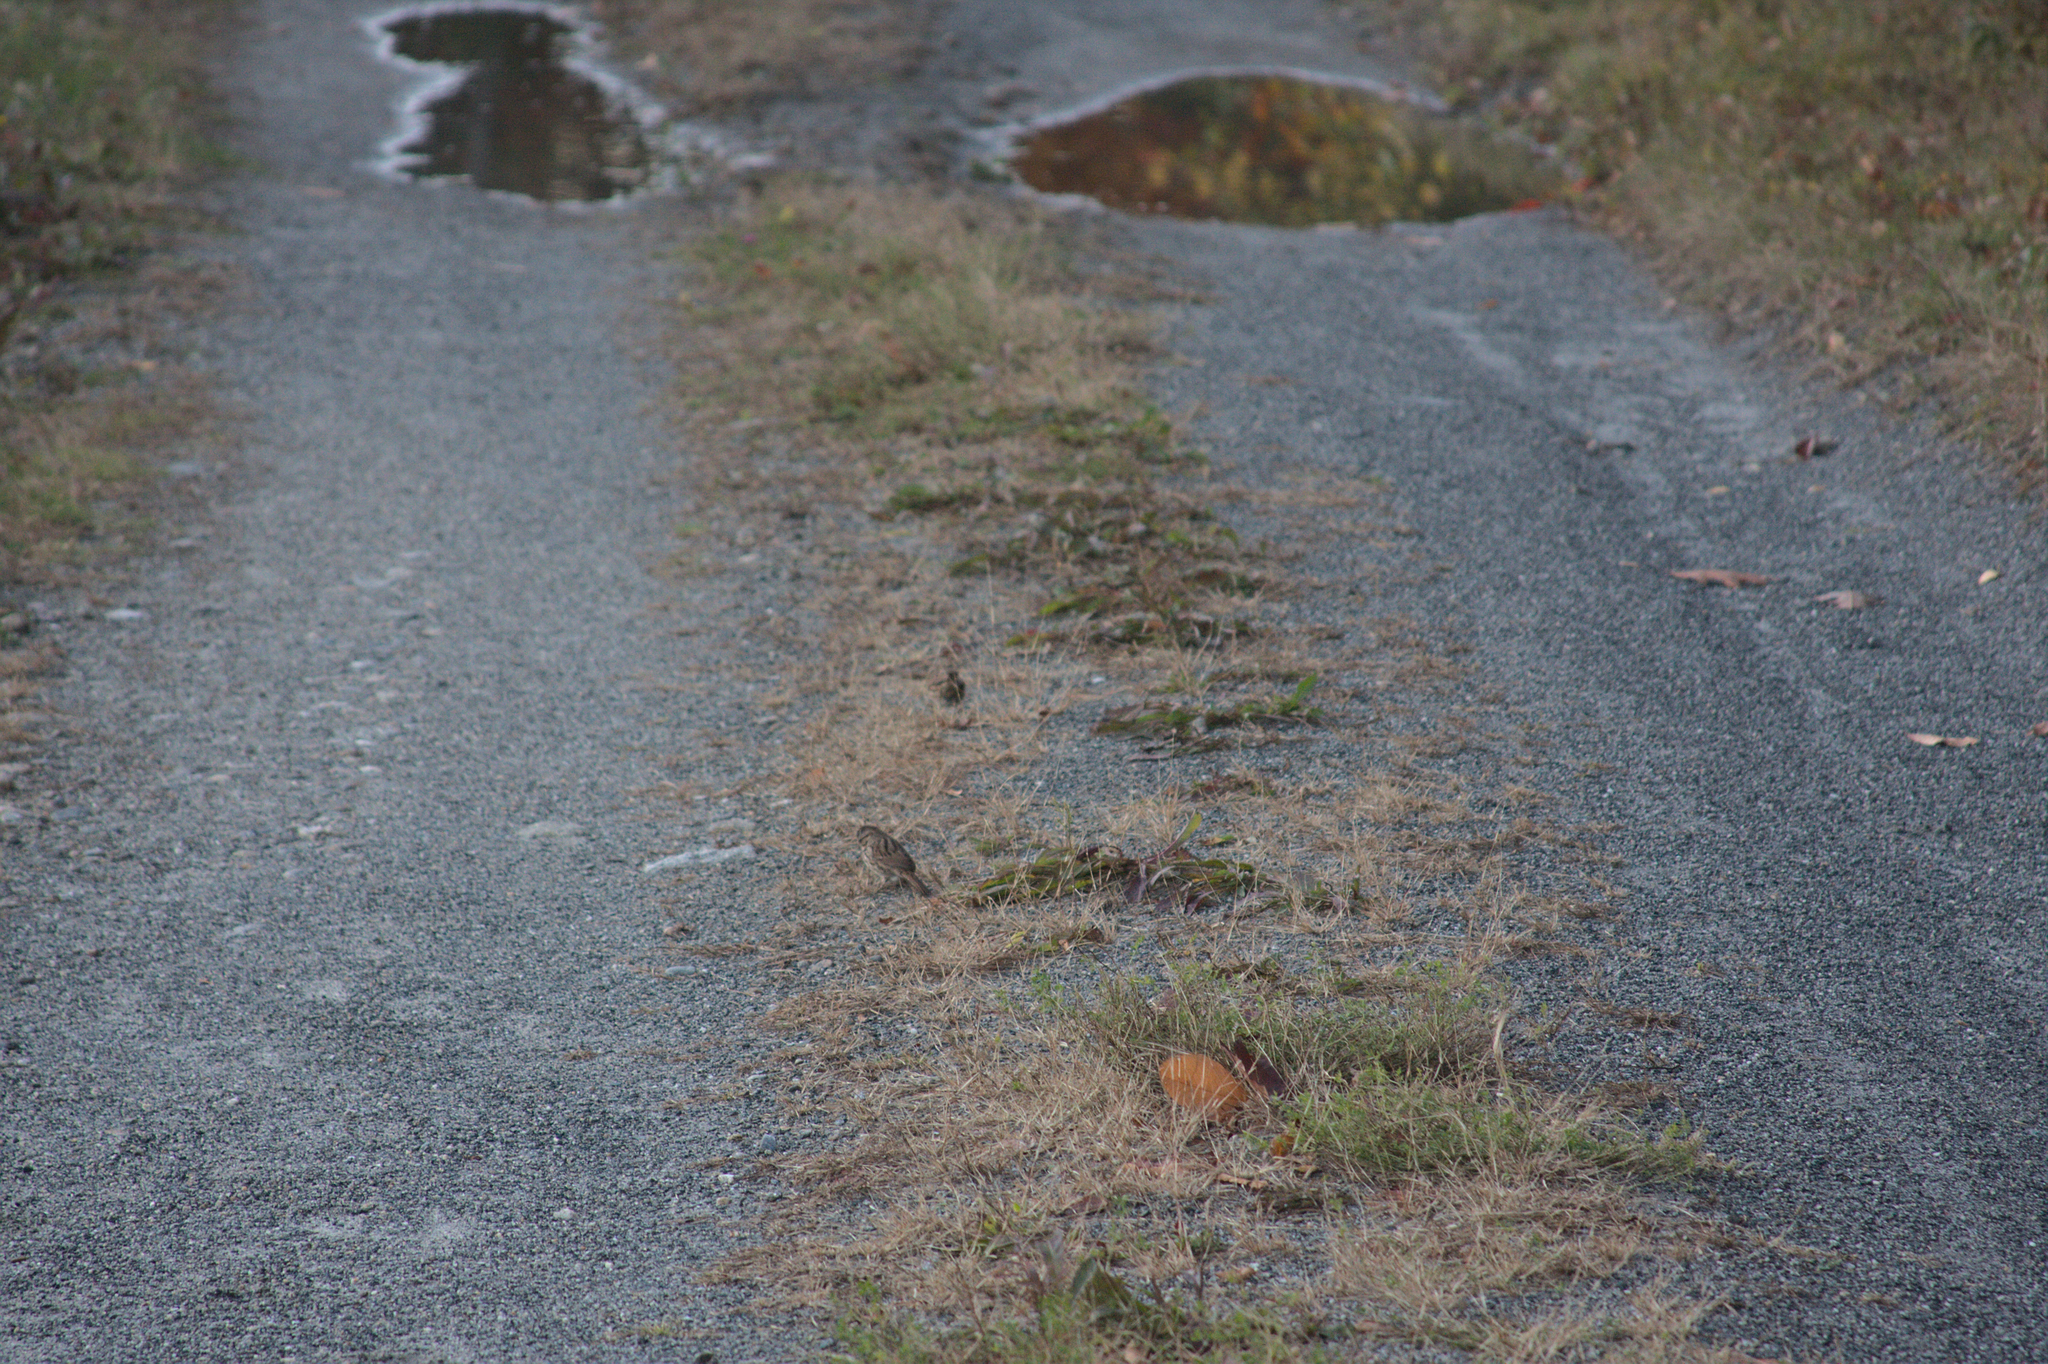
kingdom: Animalia
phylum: Chordata
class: Aves
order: Passeriformes
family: Passerellidae
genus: Melospiza
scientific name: Melospiza melodia
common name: Song sparrow
